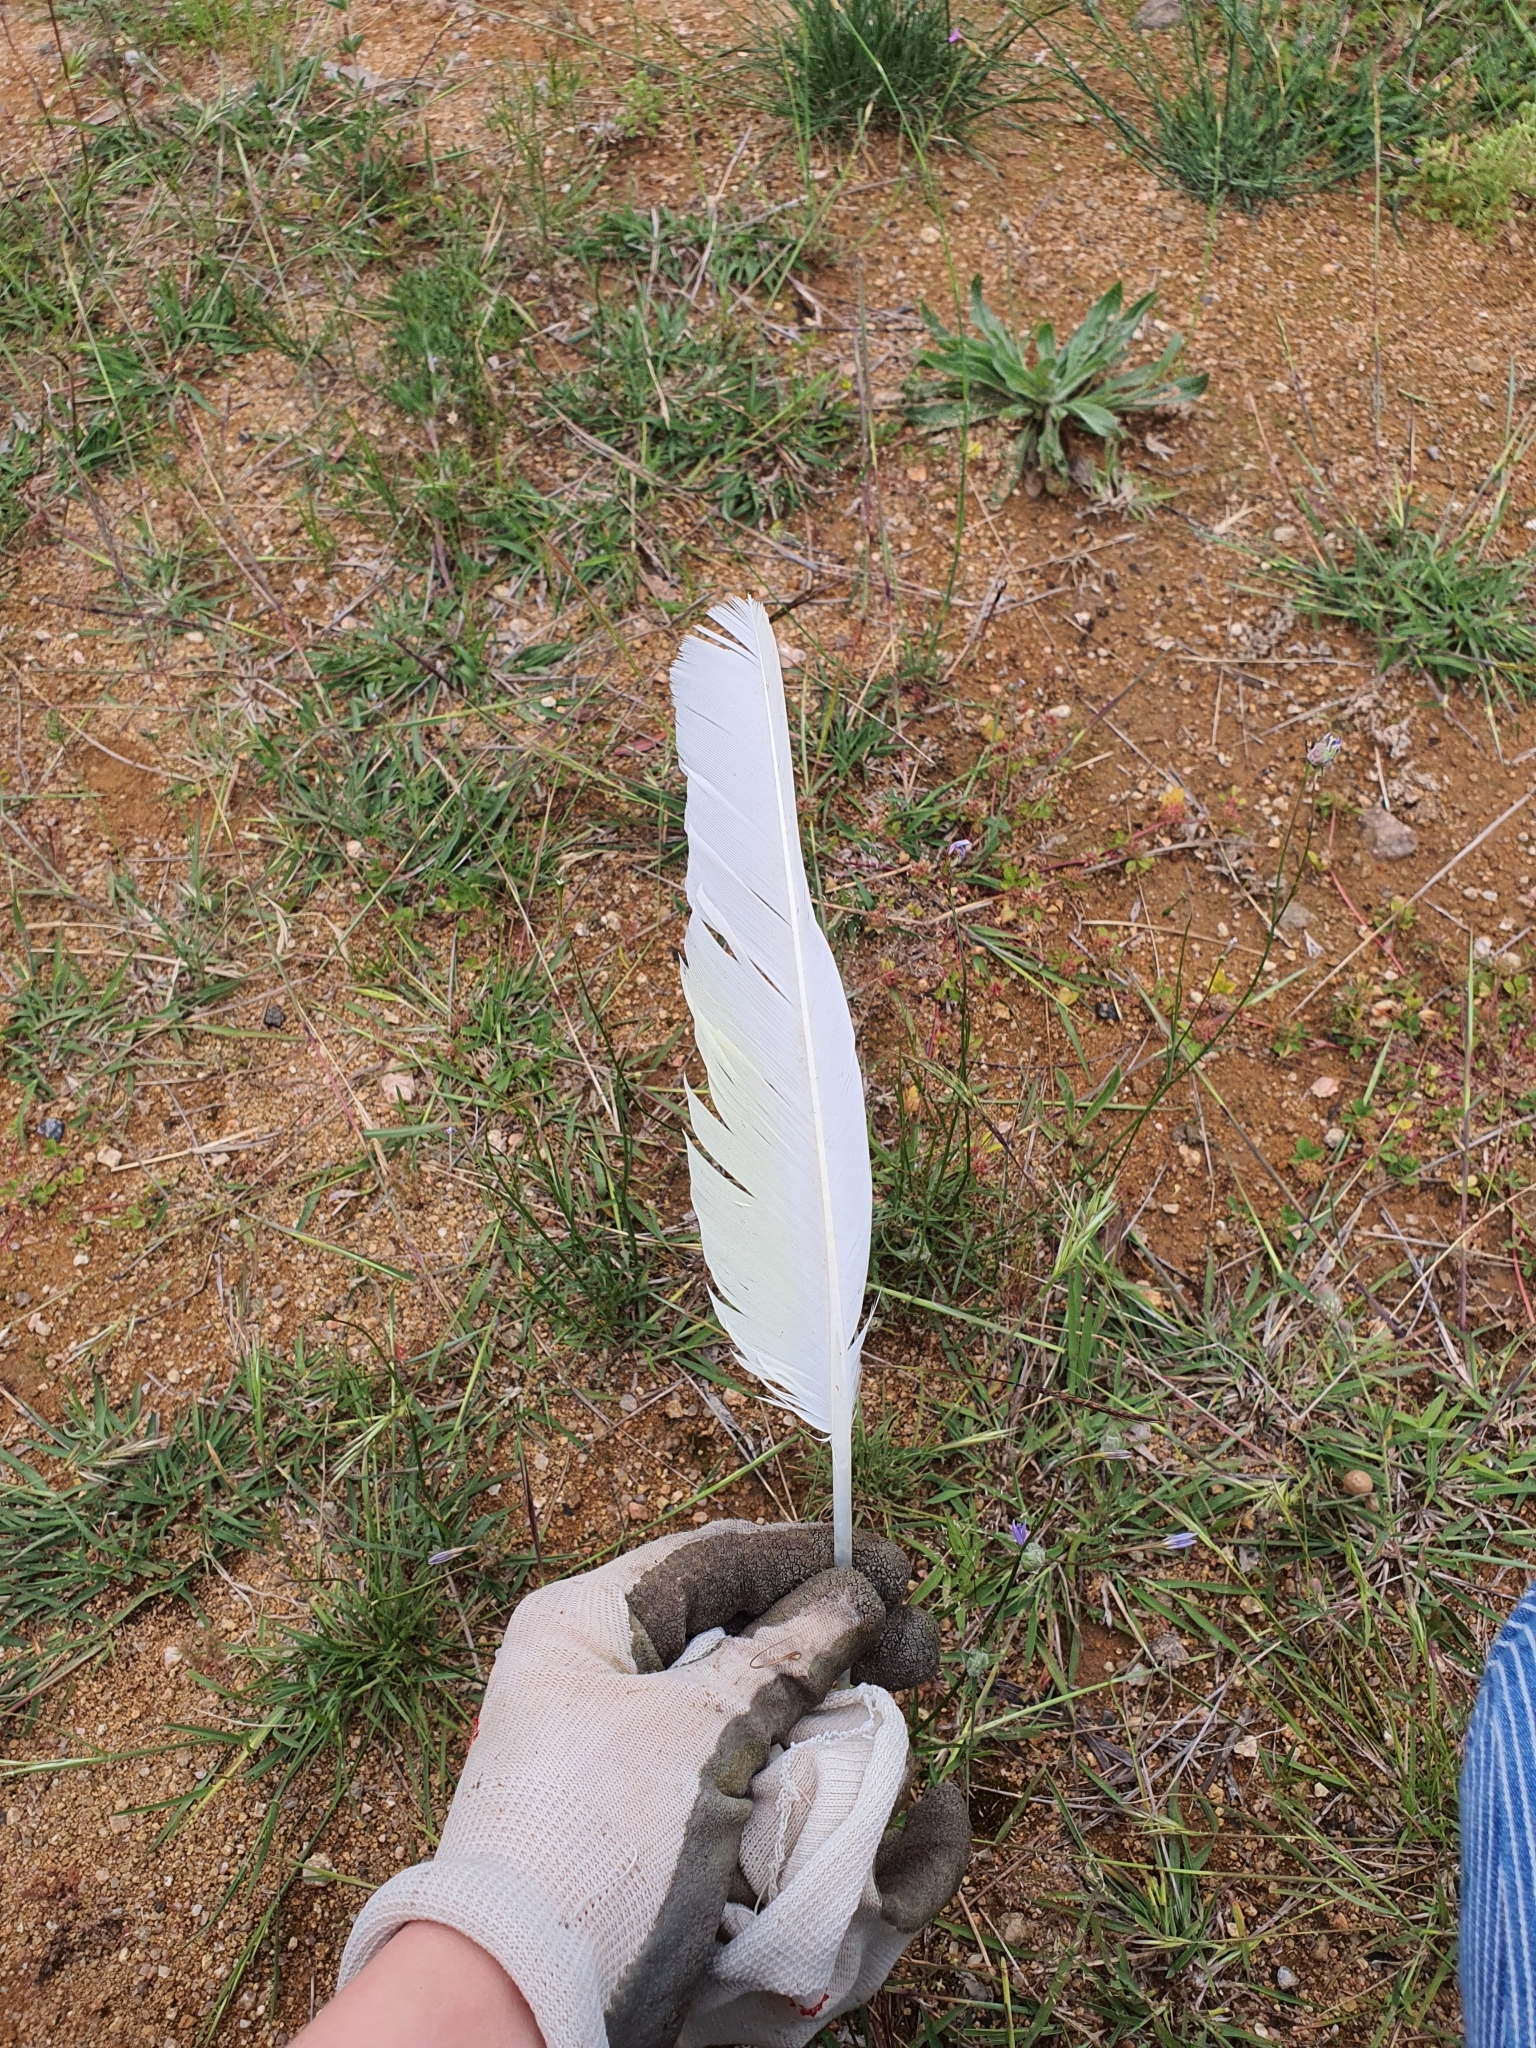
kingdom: Animalia
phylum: Chordata
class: Aves
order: Psittaciformes
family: Psittacidae
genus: Cacatua
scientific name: Cacatua galerita
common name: Sulphur-crested cockatoo
